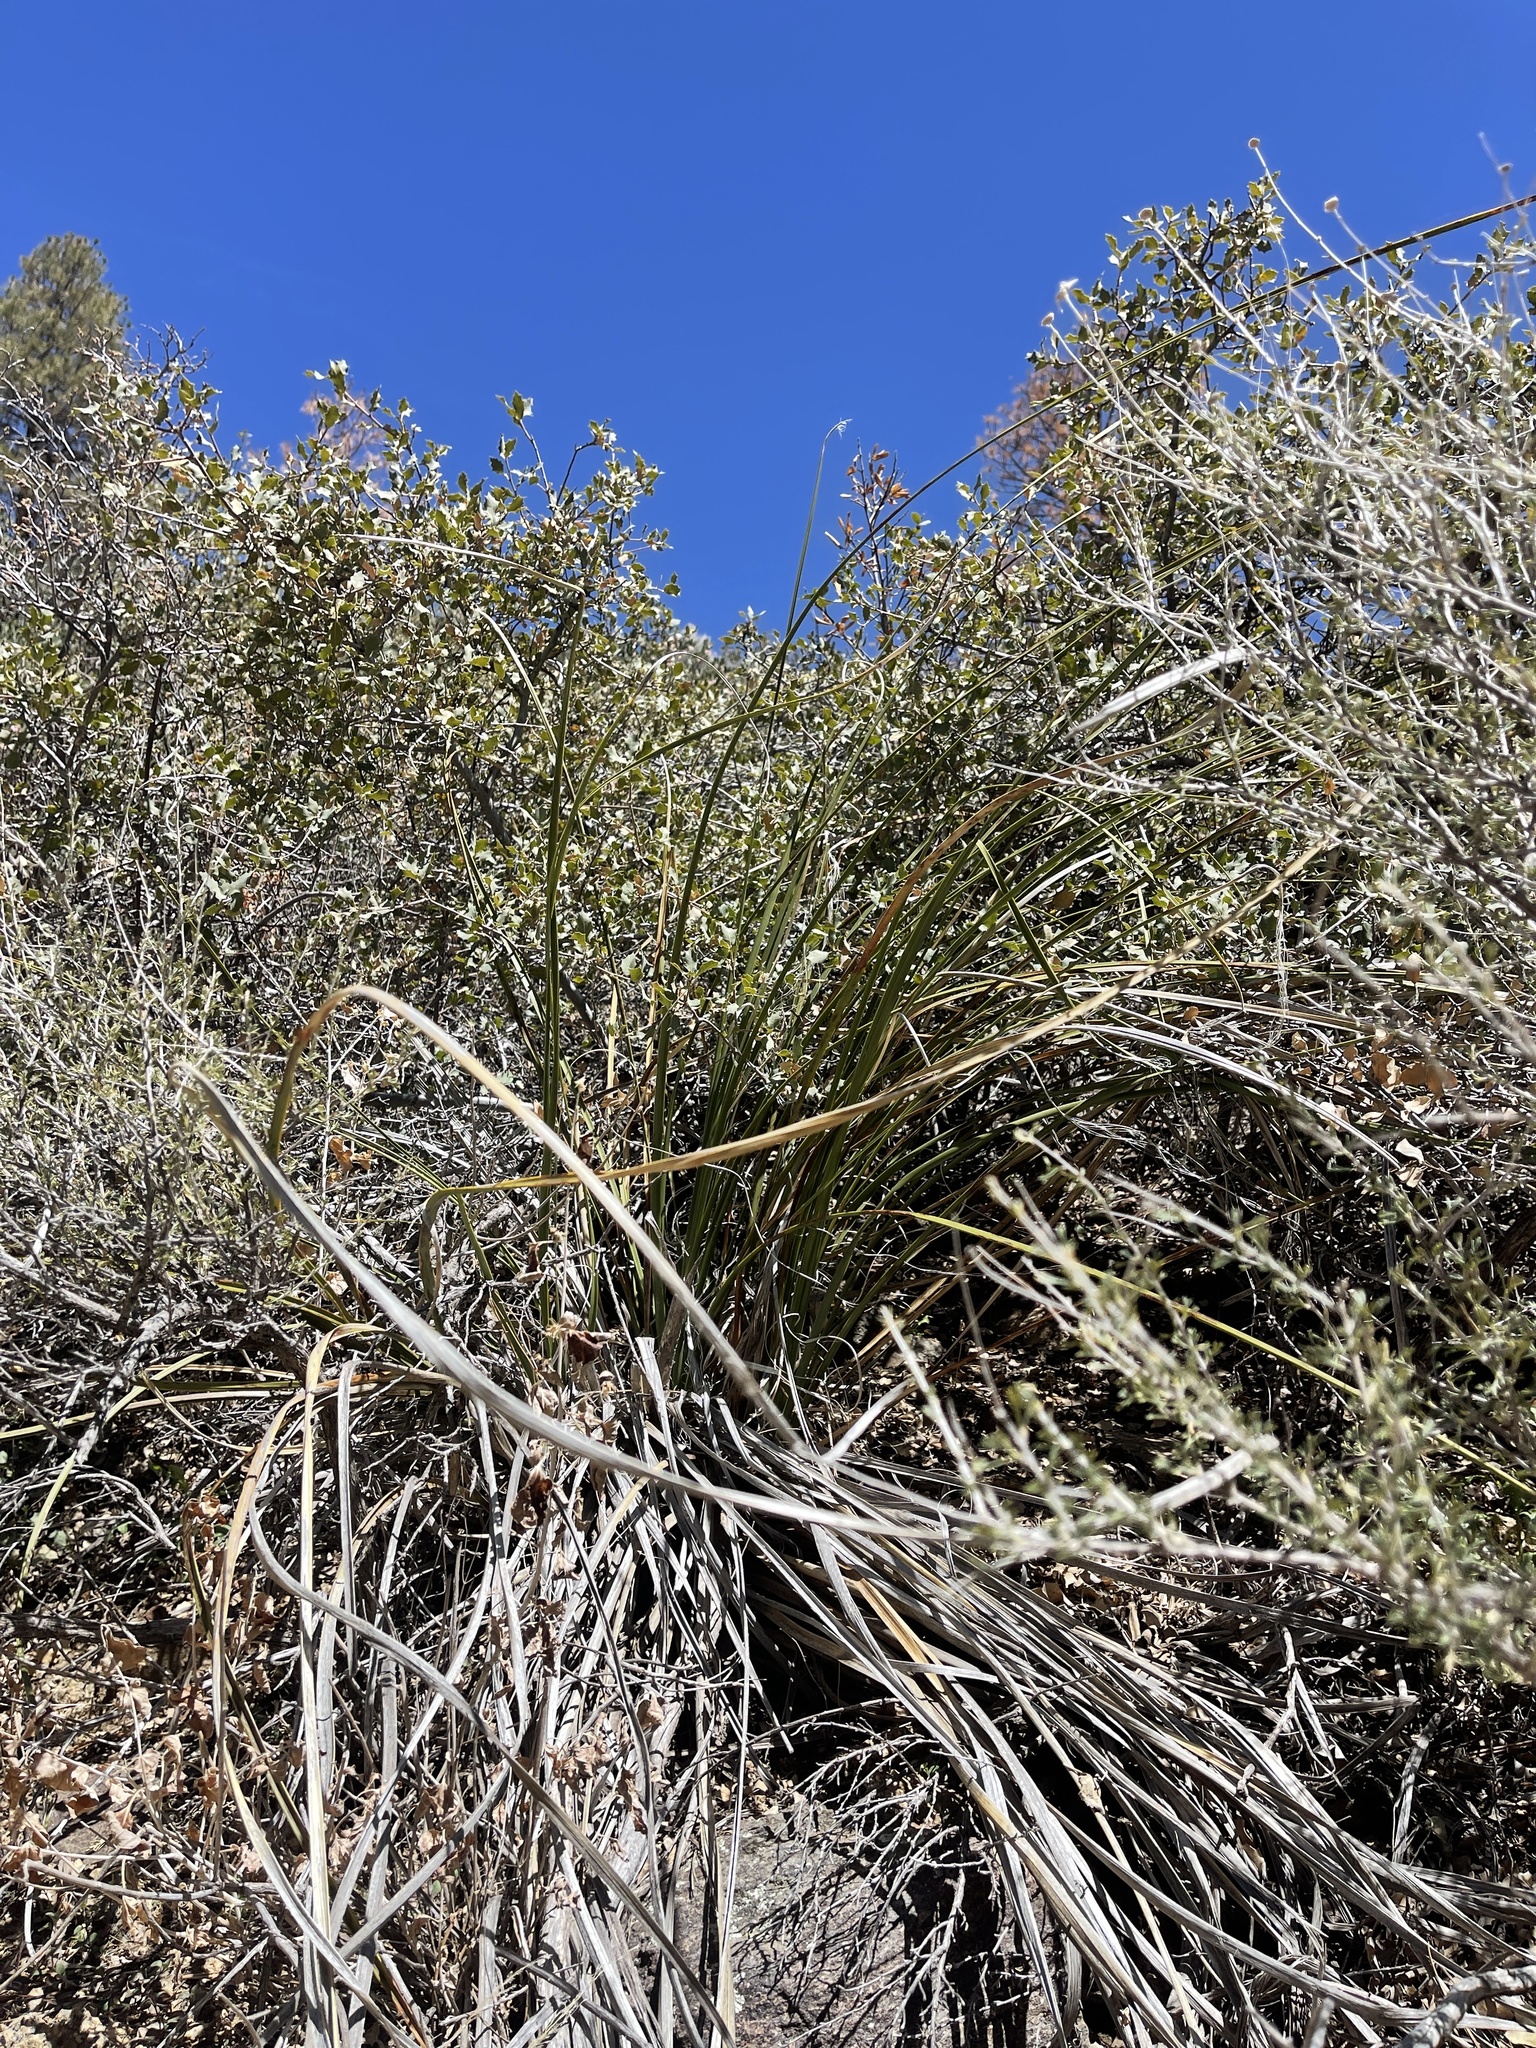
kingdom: Plantae
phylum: Tracheophyta
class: Liliopsida
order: Asparagales
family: Asparagaceae
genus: Nolina
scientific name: Nolina microcarpa
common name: Bear-grass
